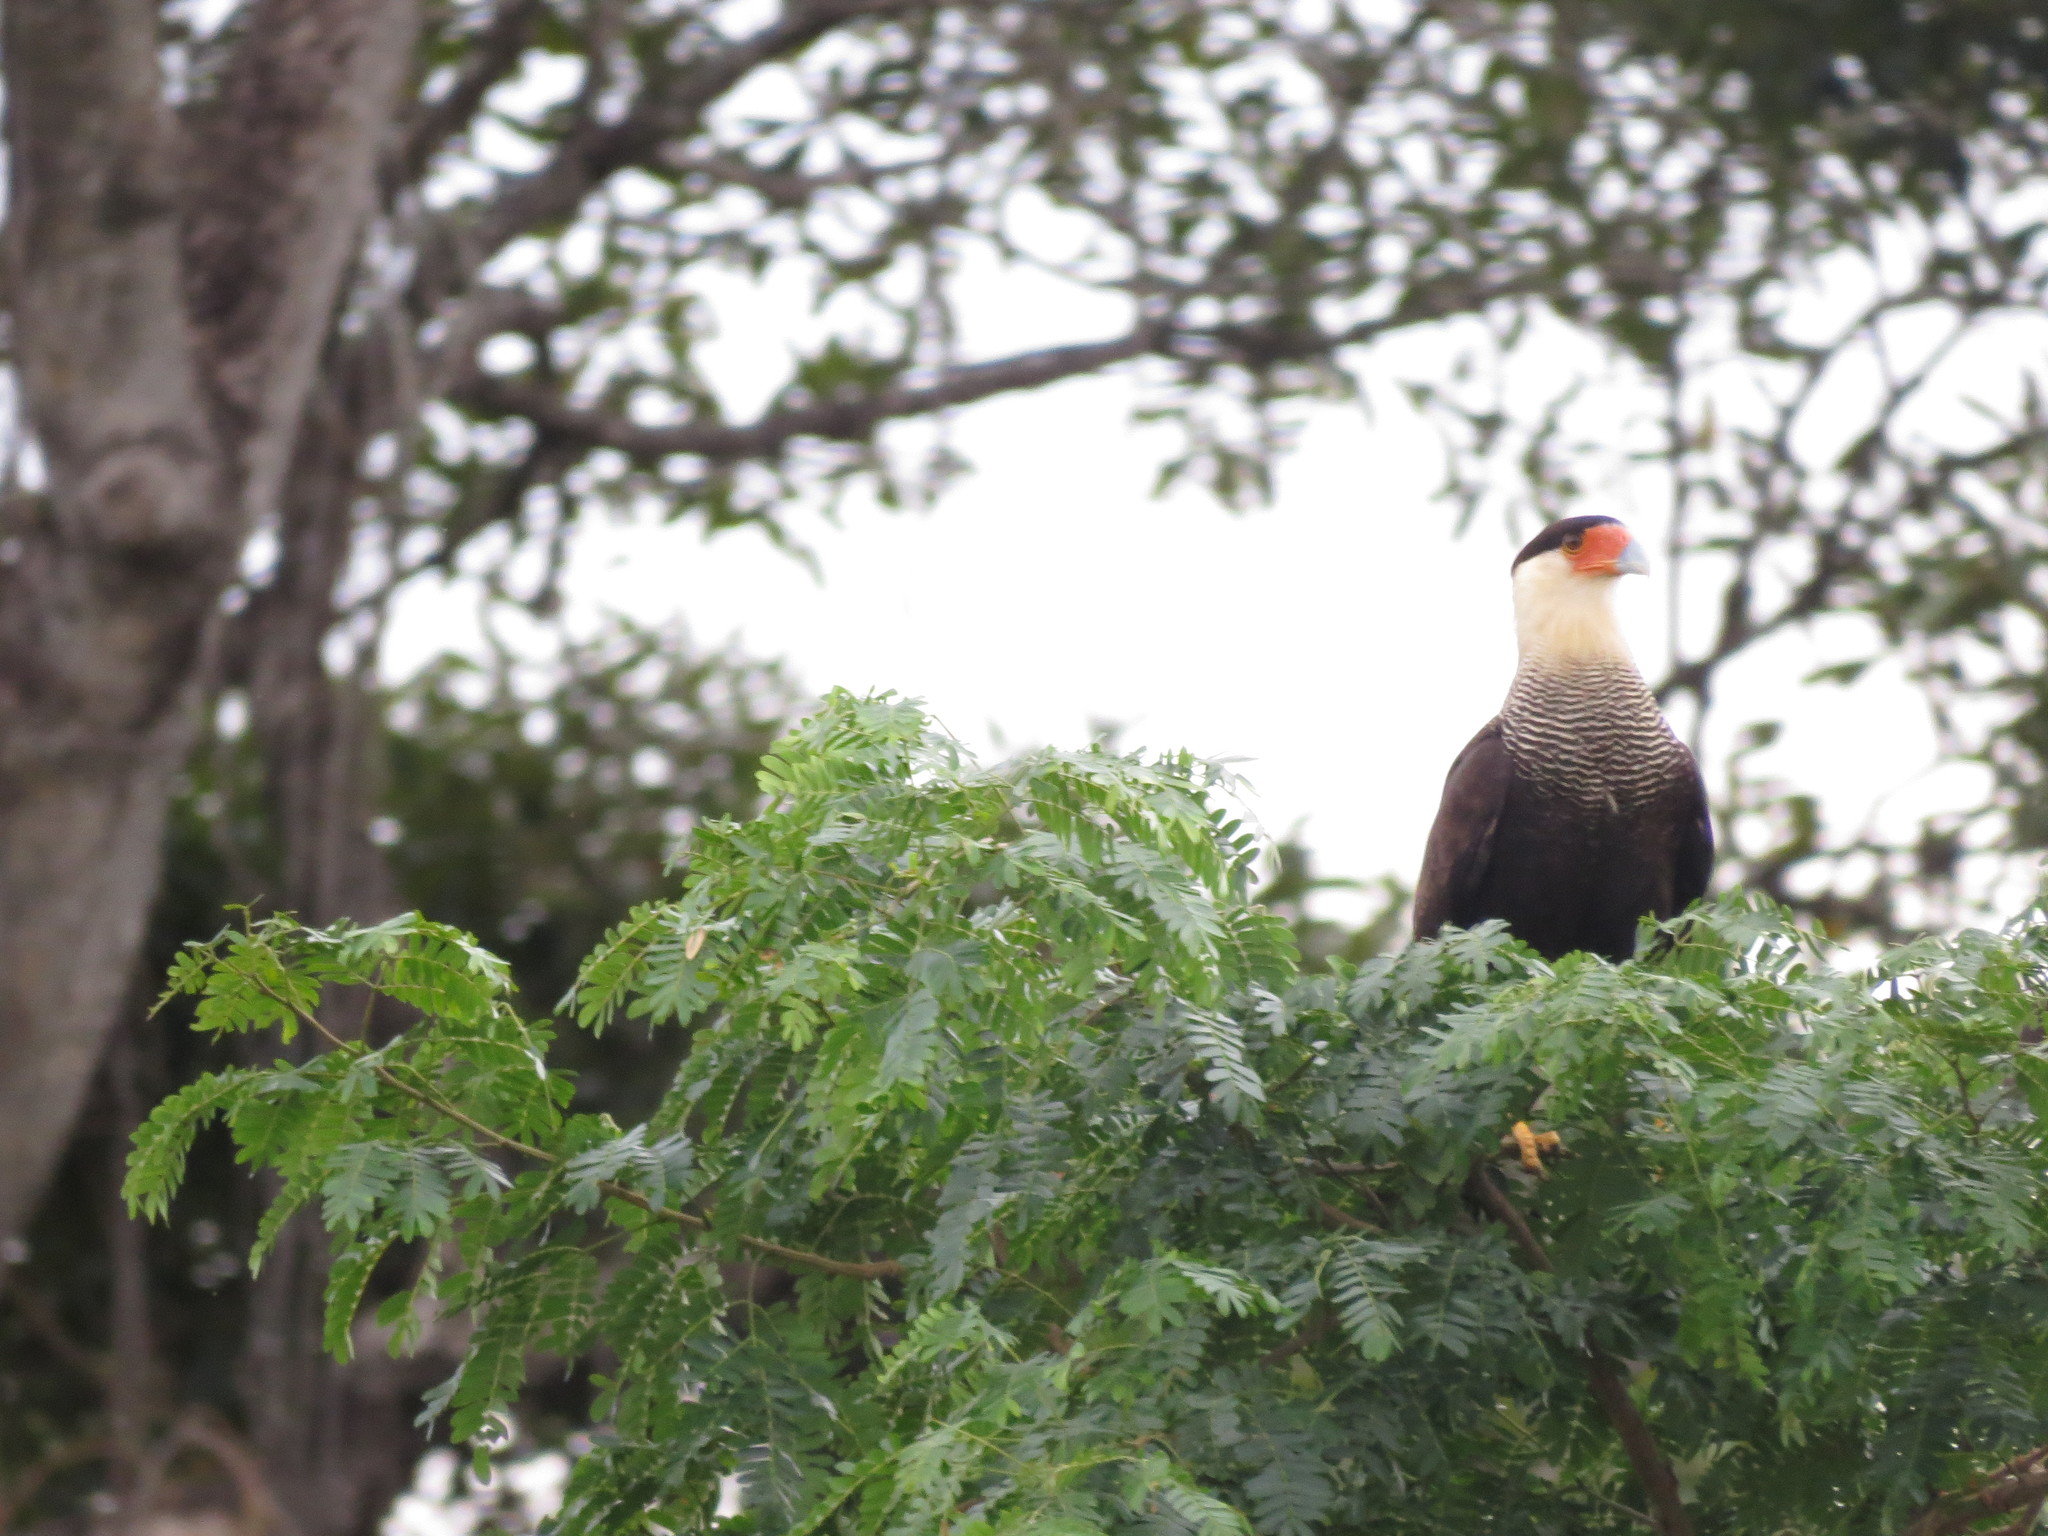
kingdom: Animalia
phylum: Chordata
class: Aves
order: Falconiformes
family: Falconidae
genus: Caracara
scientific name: Caracara plancus
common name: Southern caracara
